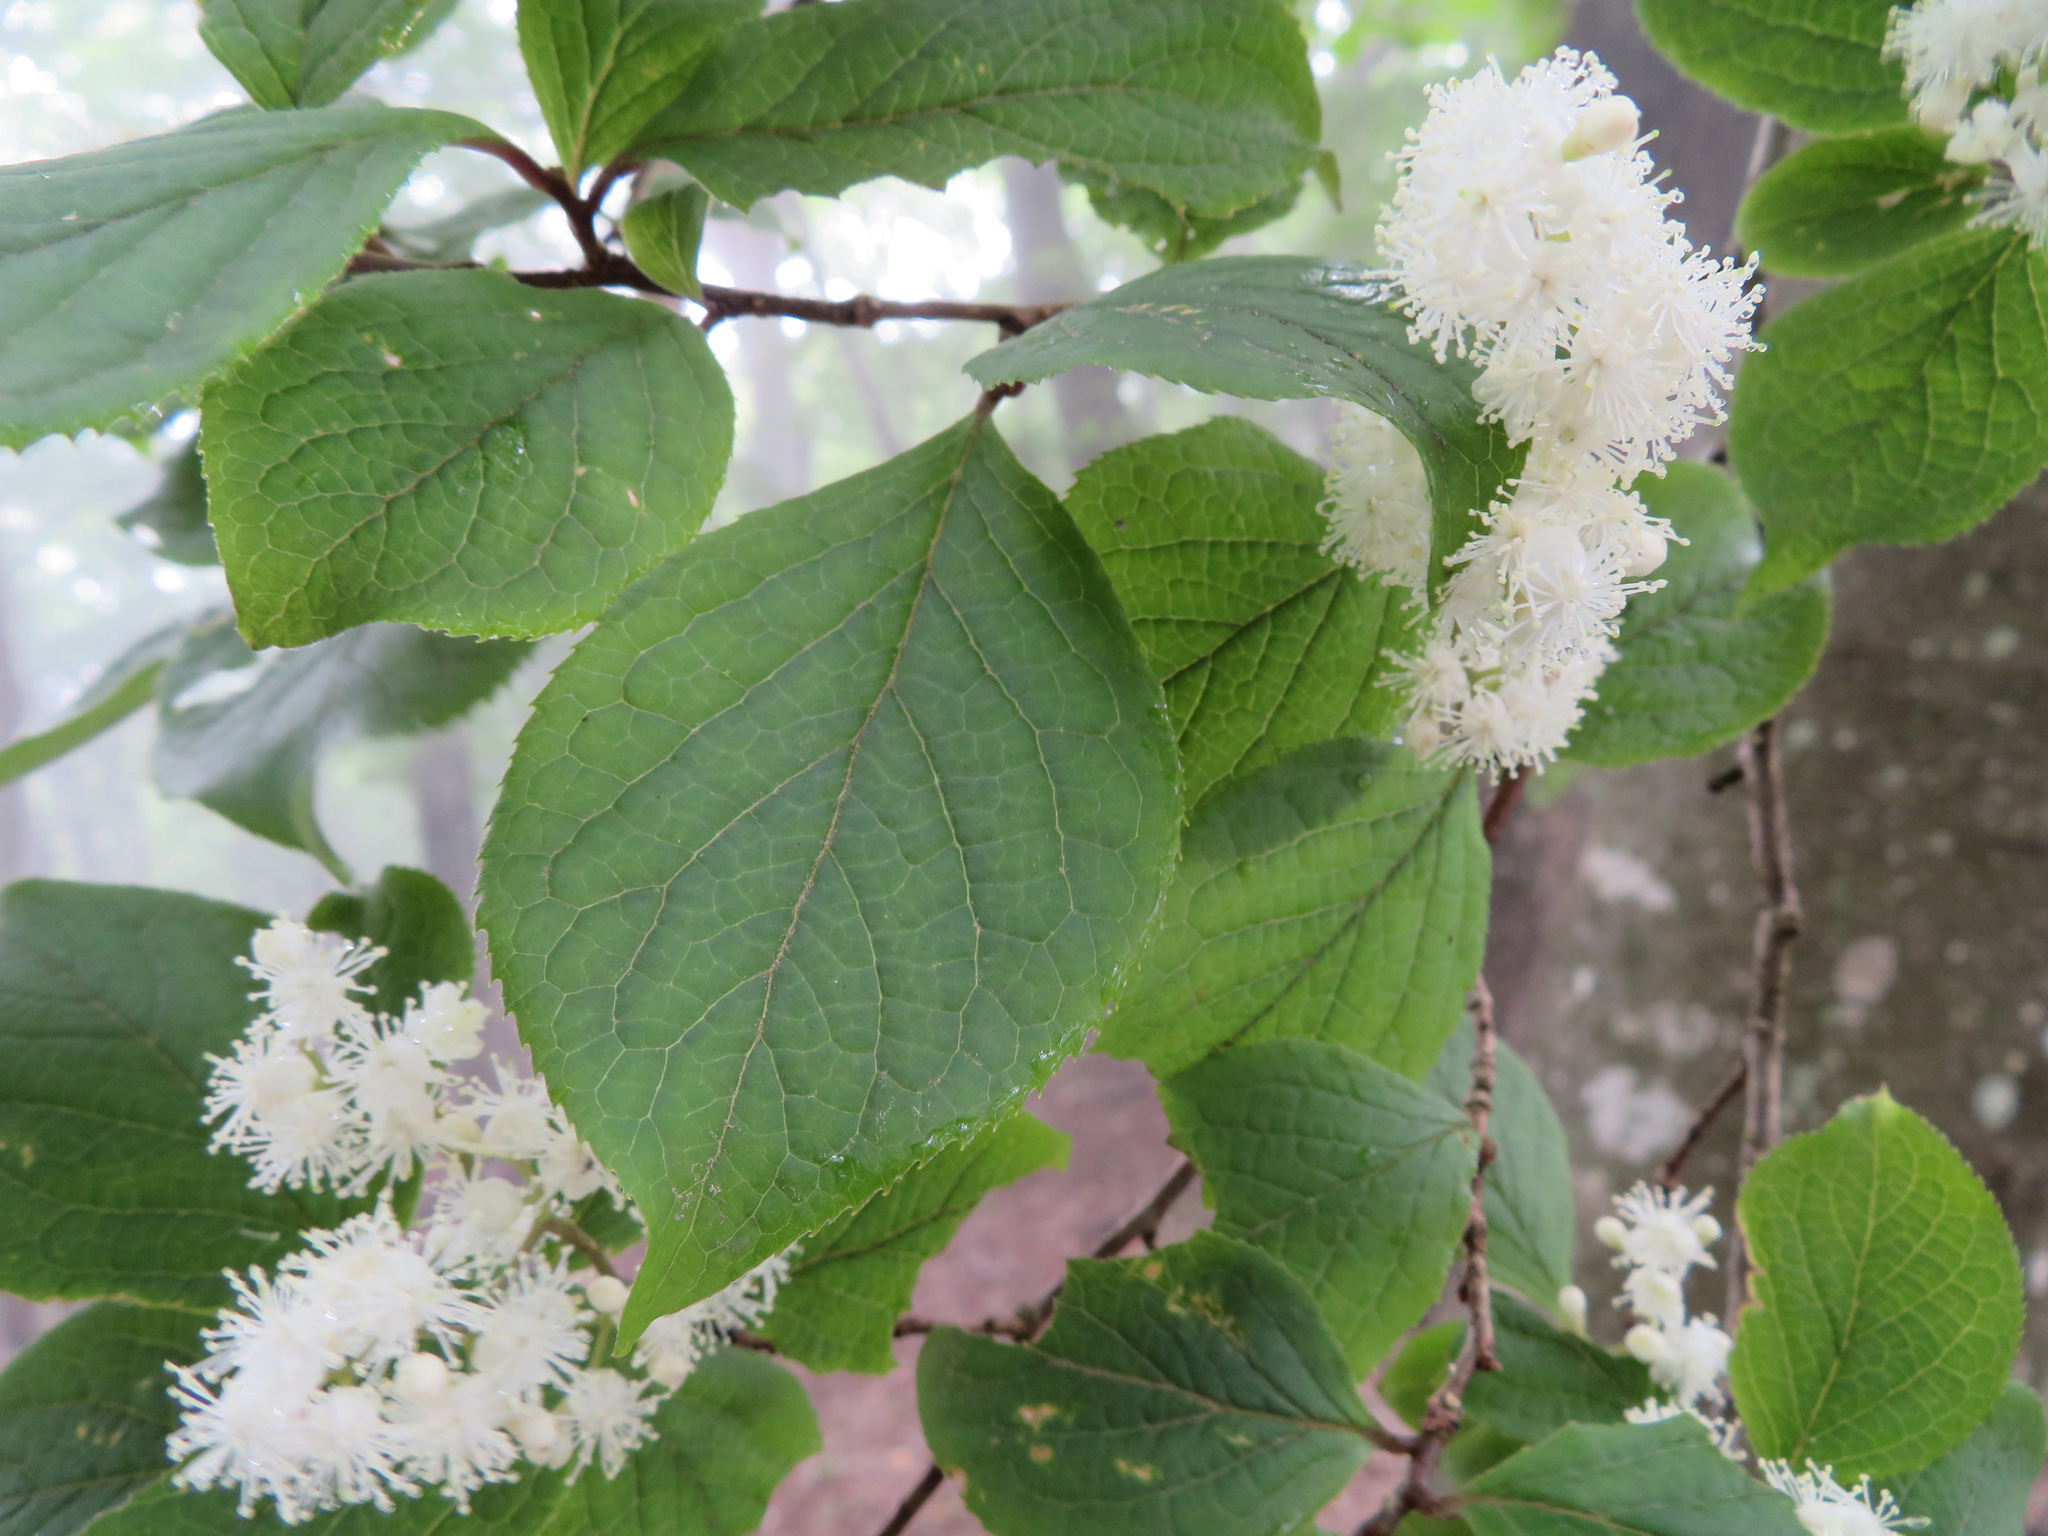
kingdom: Plantae
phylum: Tracheophyta
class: Magnoliopsida
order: Ericales
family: Symplocaceae
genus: Symplocos
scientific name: Symplocos sawafutagi
